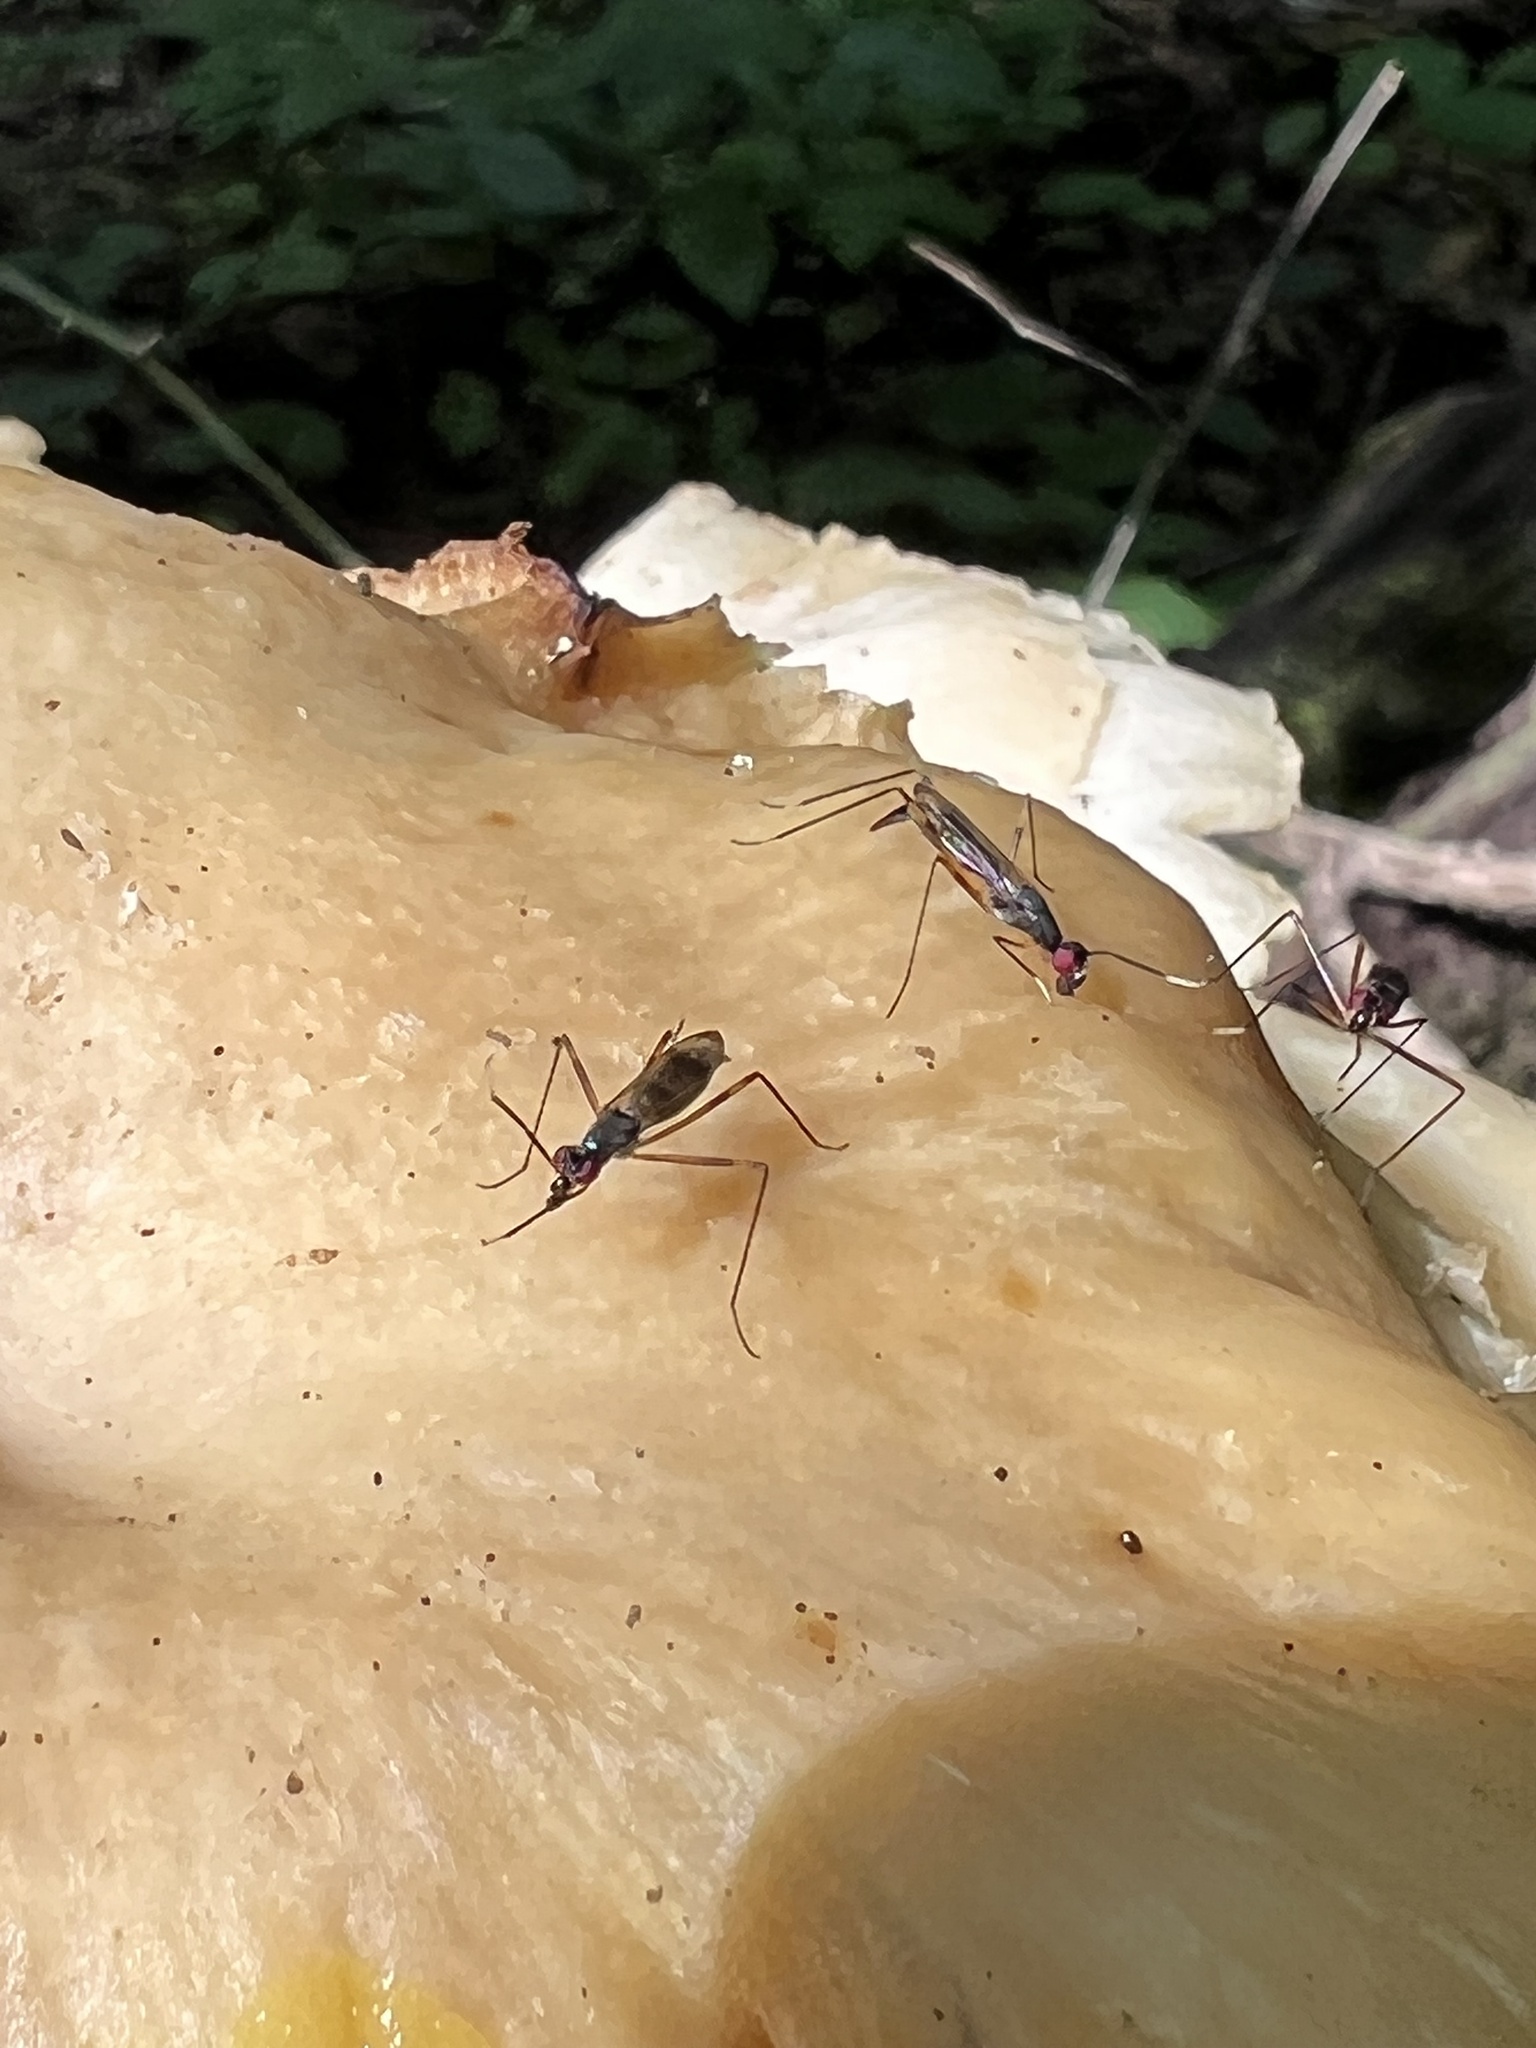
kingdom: Animalia
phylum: Arthropoda
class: Insecta
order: Diptera
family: Micropezidae
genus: Rainieria
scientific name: Rainieria antennaepes
